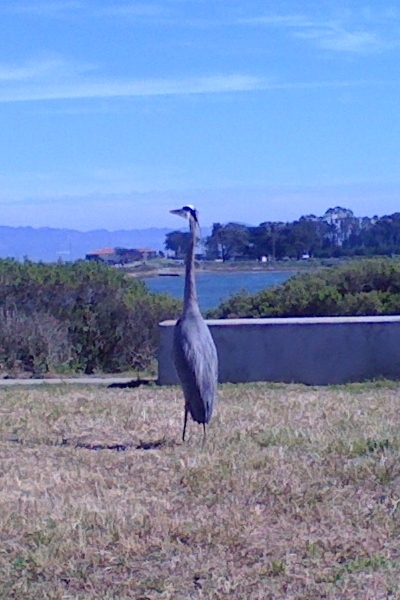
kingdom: Animalia
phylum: Chordata
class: Aves
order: Pelecaniformes
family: Ardeidae
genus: Ardea
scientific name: Ardea herodias
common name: Great blue heron
